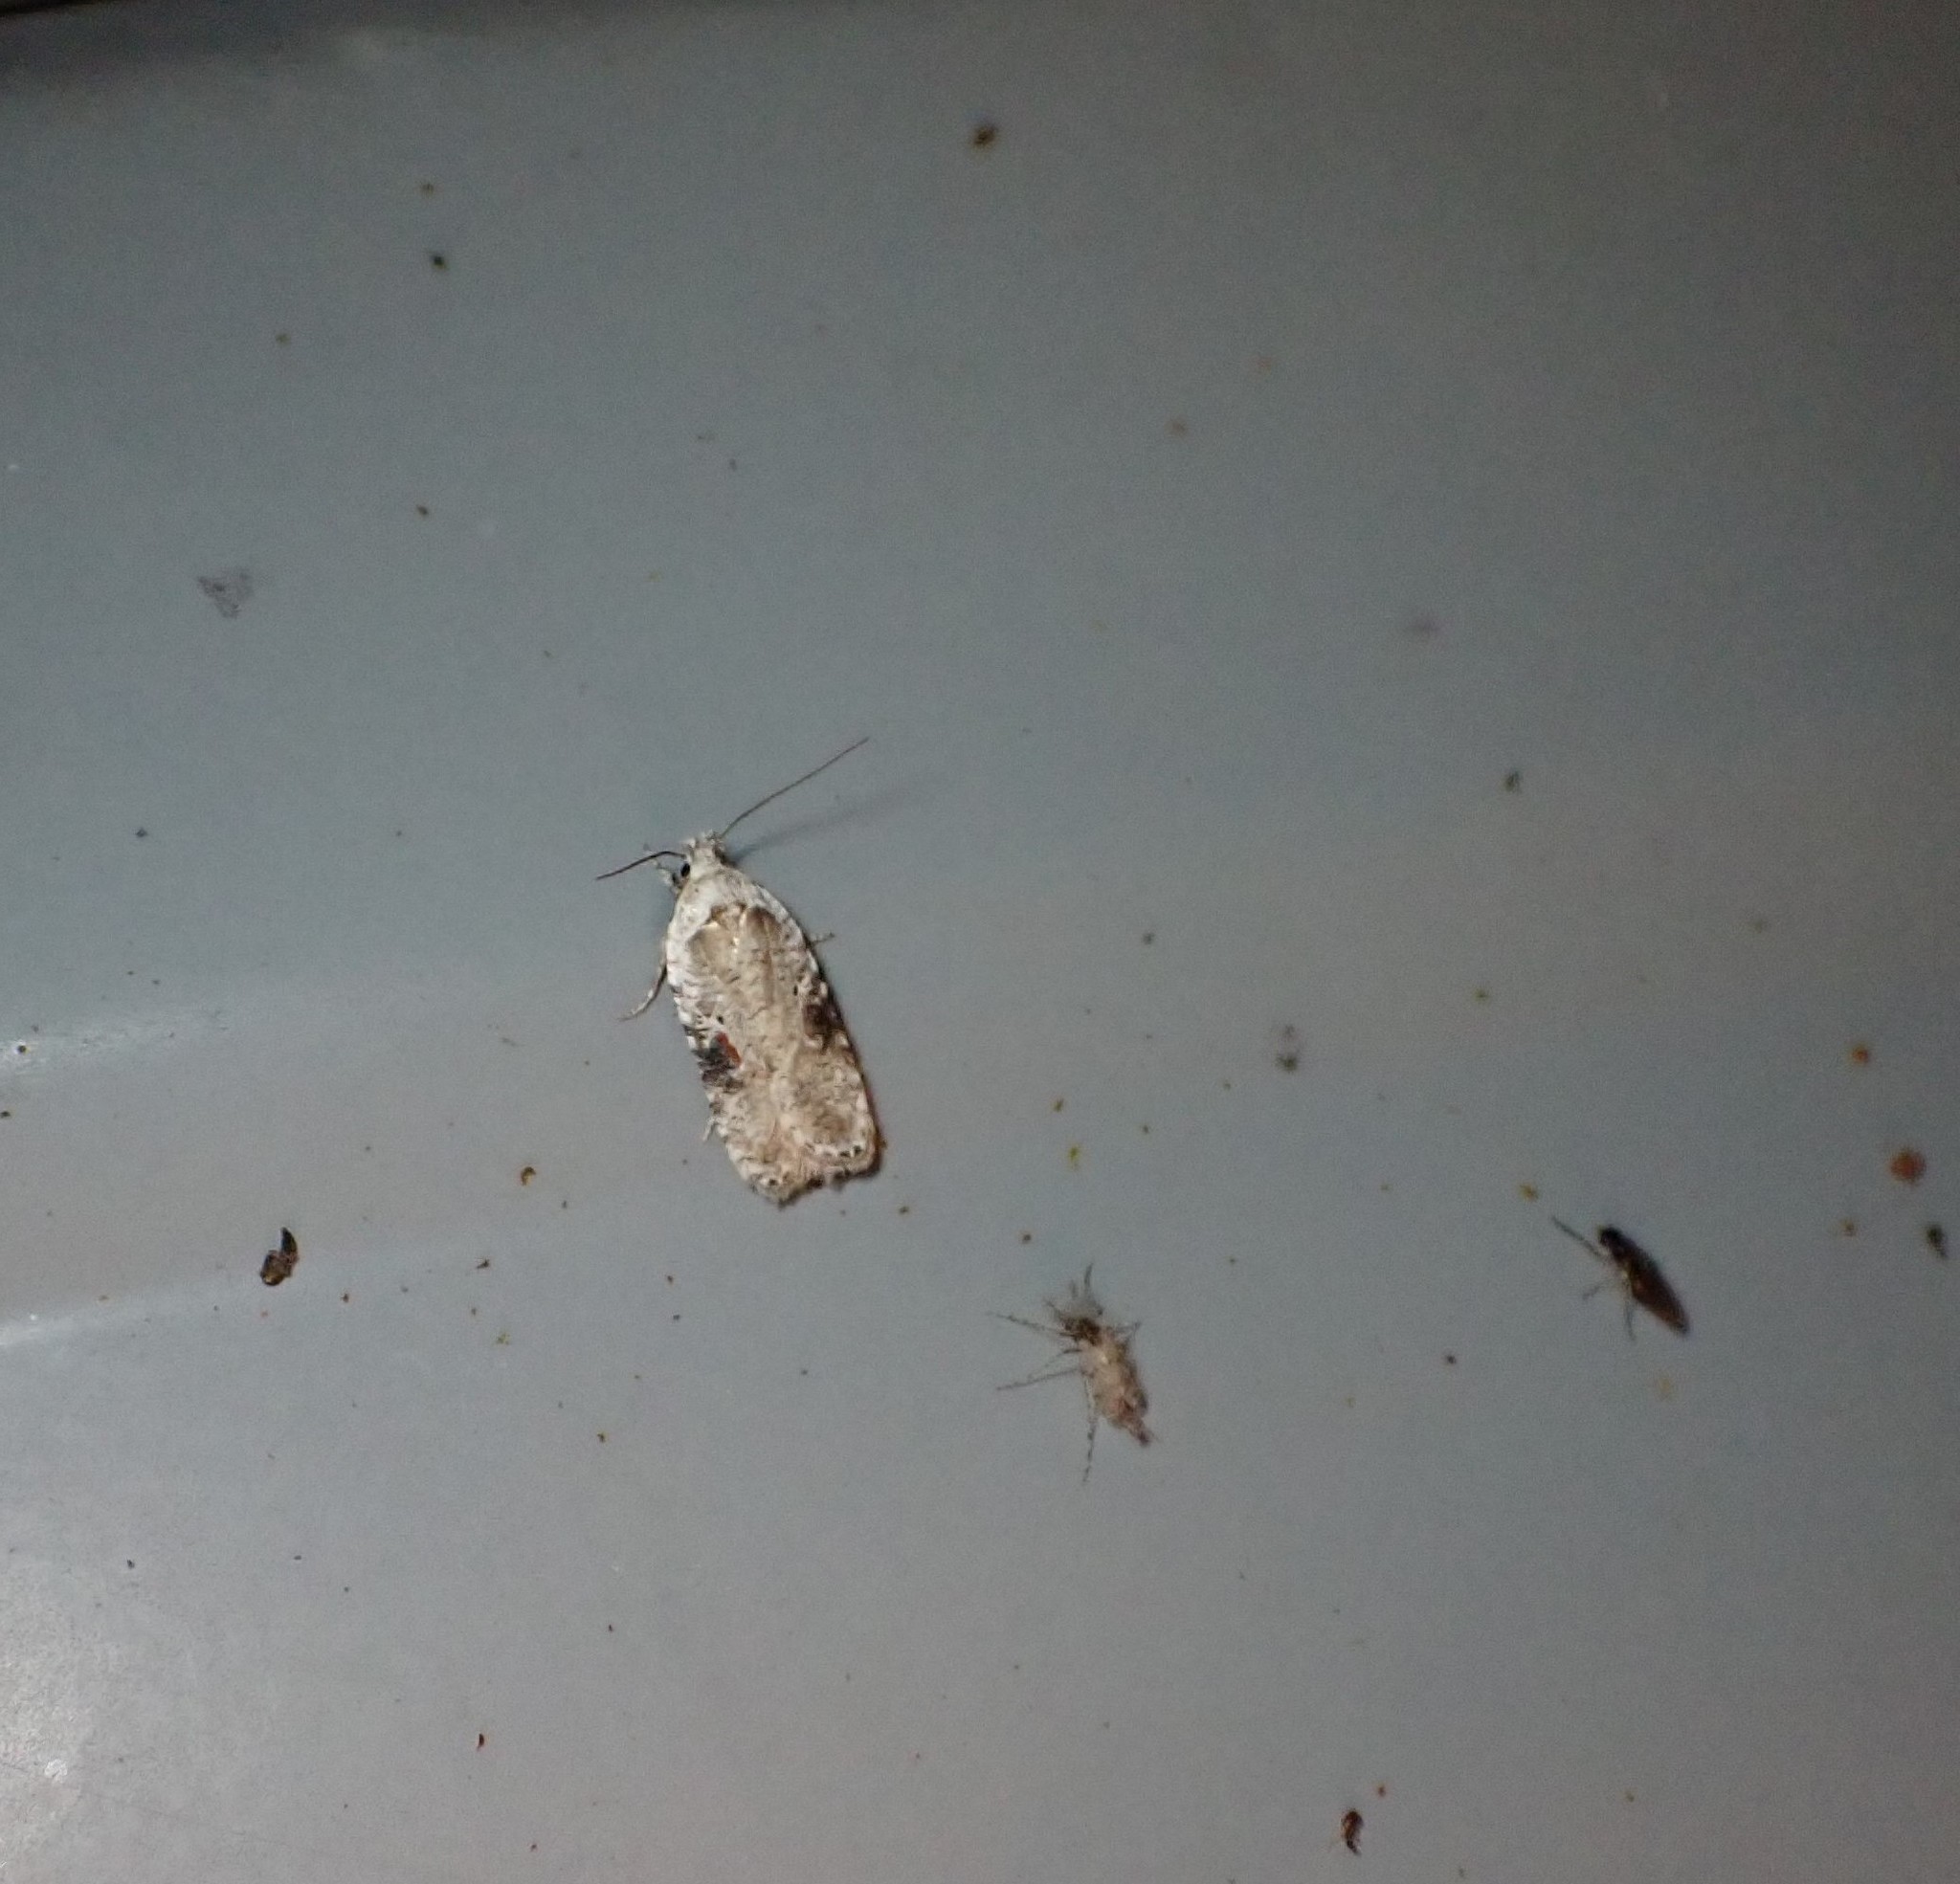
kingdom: Animalia
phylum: Arthropoda
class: Insecta
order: Lepidoptera
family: Depressariidae
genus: Agonopterix
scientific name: Agonopterix alstroemeriana
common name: Moth
